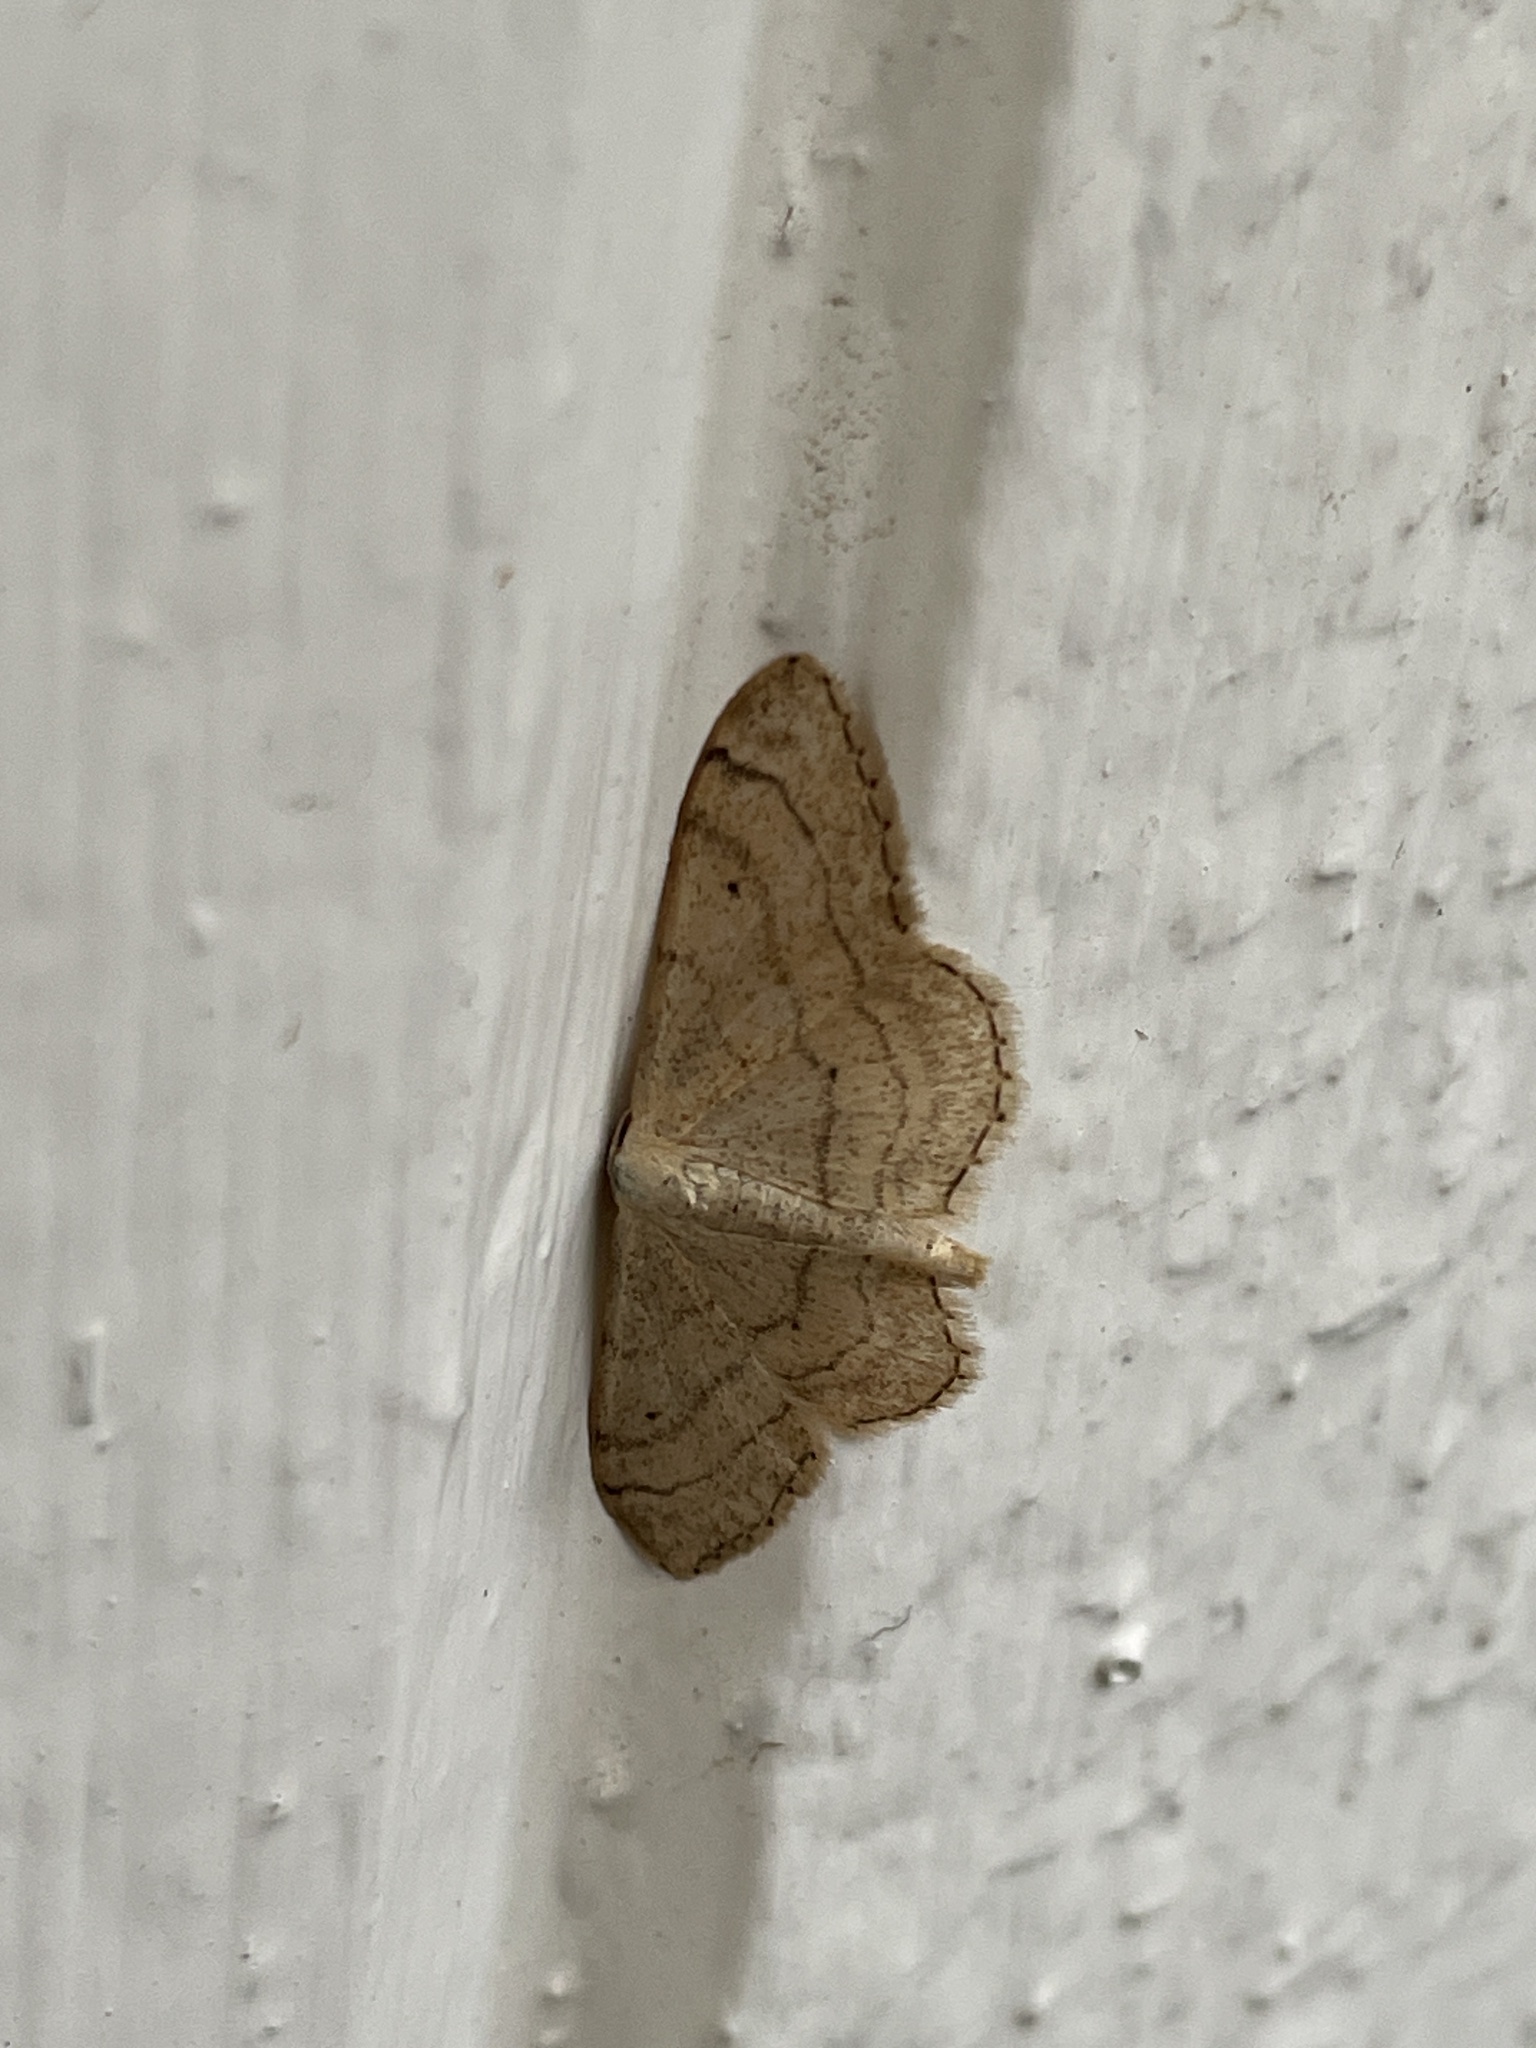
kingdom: Animalia
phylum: Arthropoda
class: Insecta
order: Lepidoptera
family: Geometridae
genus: Idaea
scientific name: Idaea aversata
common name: Riband wave
